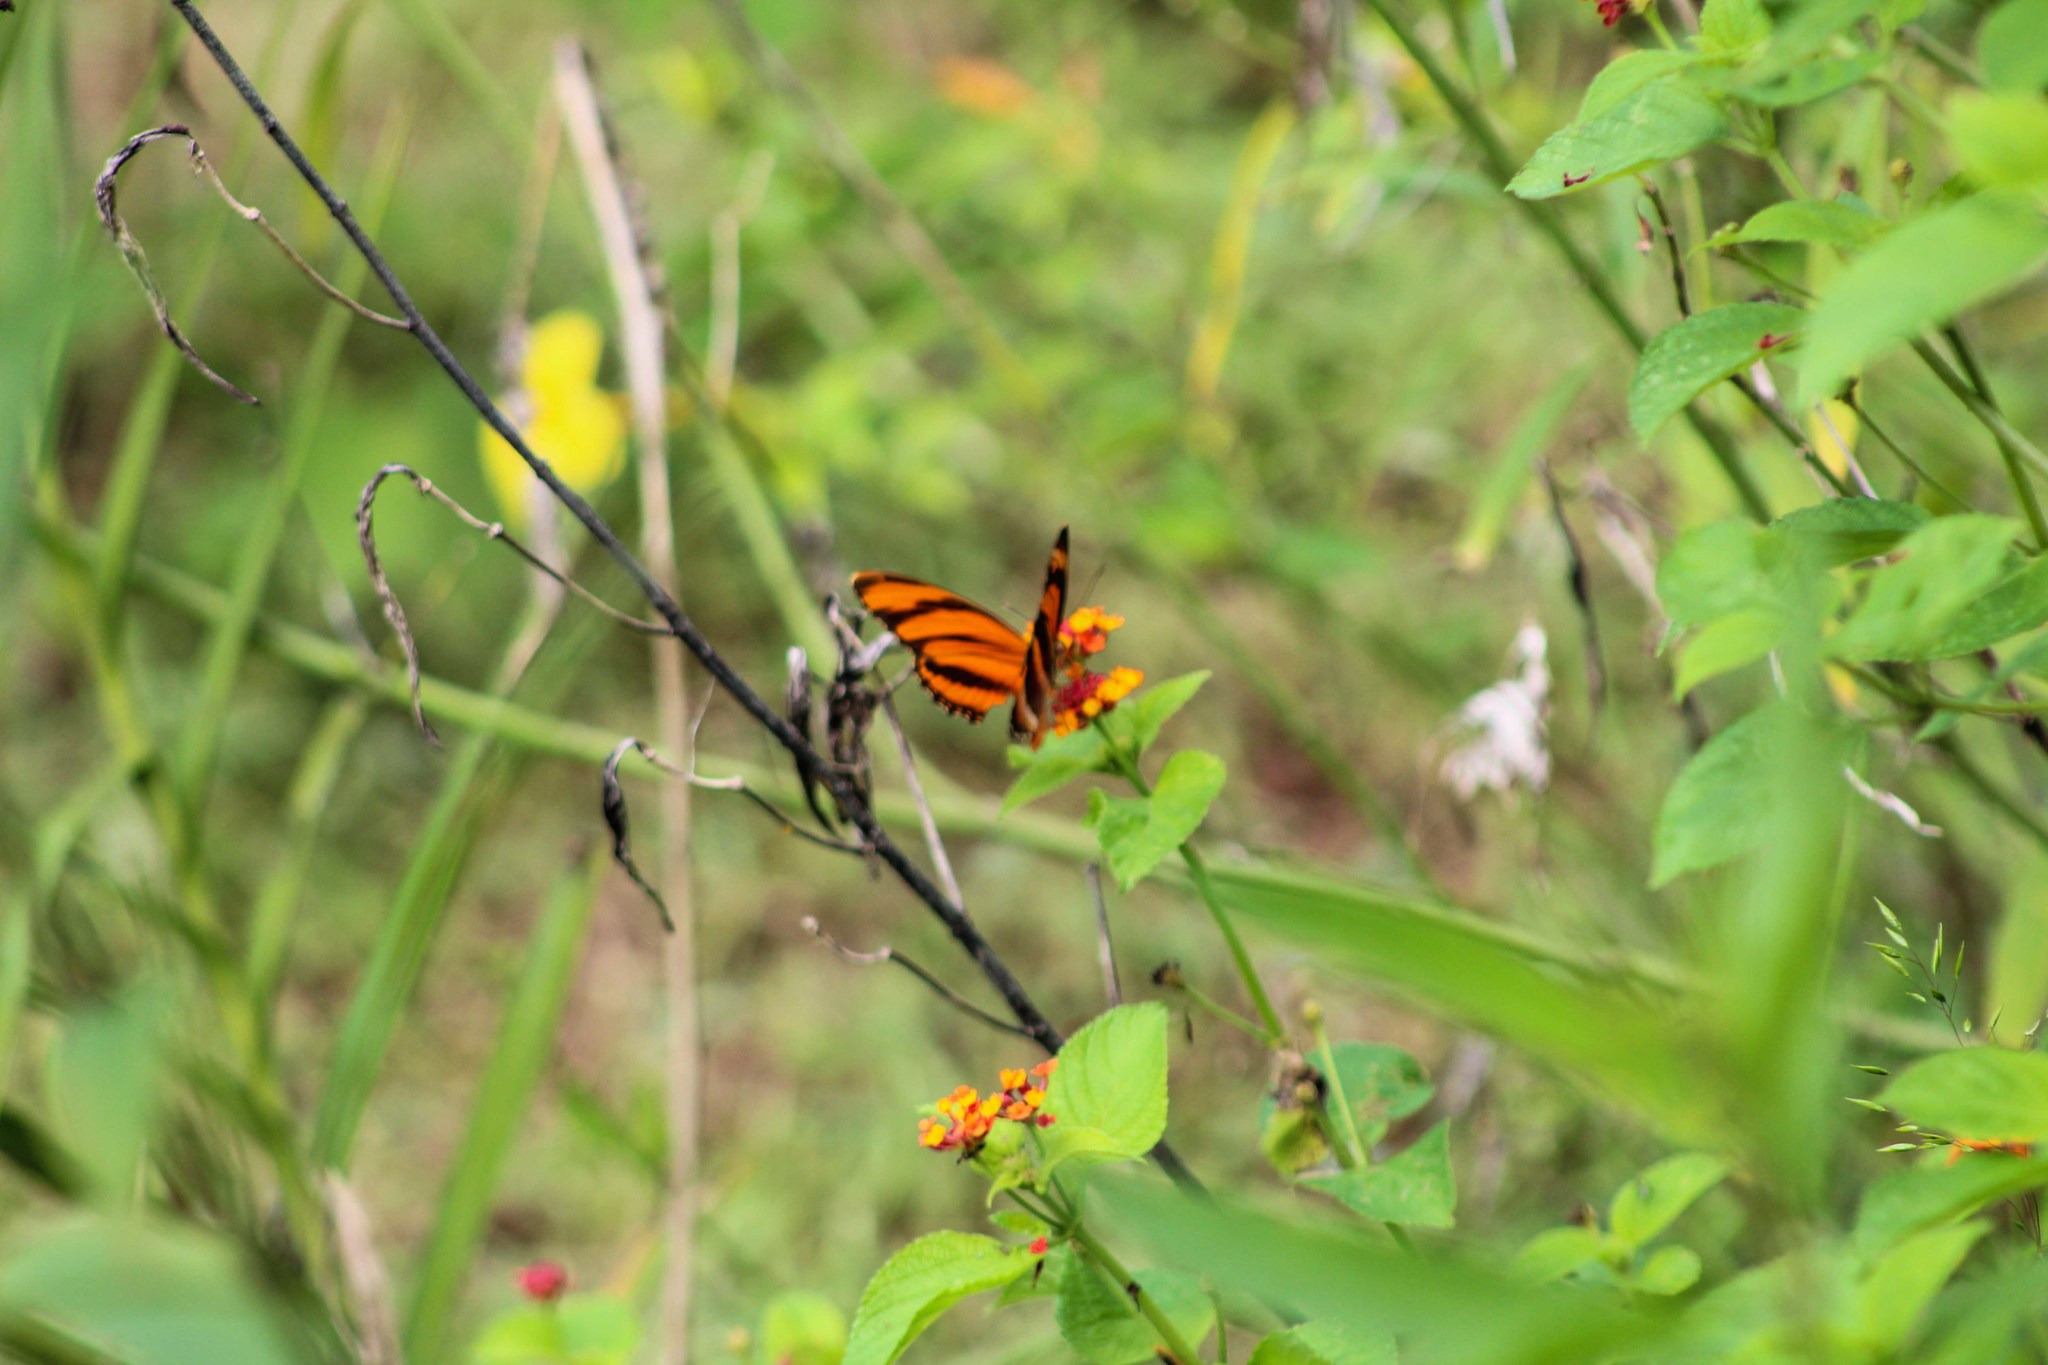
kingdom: Animalia
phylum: Arthropoda
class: Insecta
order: Lepidoptera
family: Nymphalidae
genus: Dryadula
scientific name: Dryadula phaetusa
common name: Banded orange heliconian
